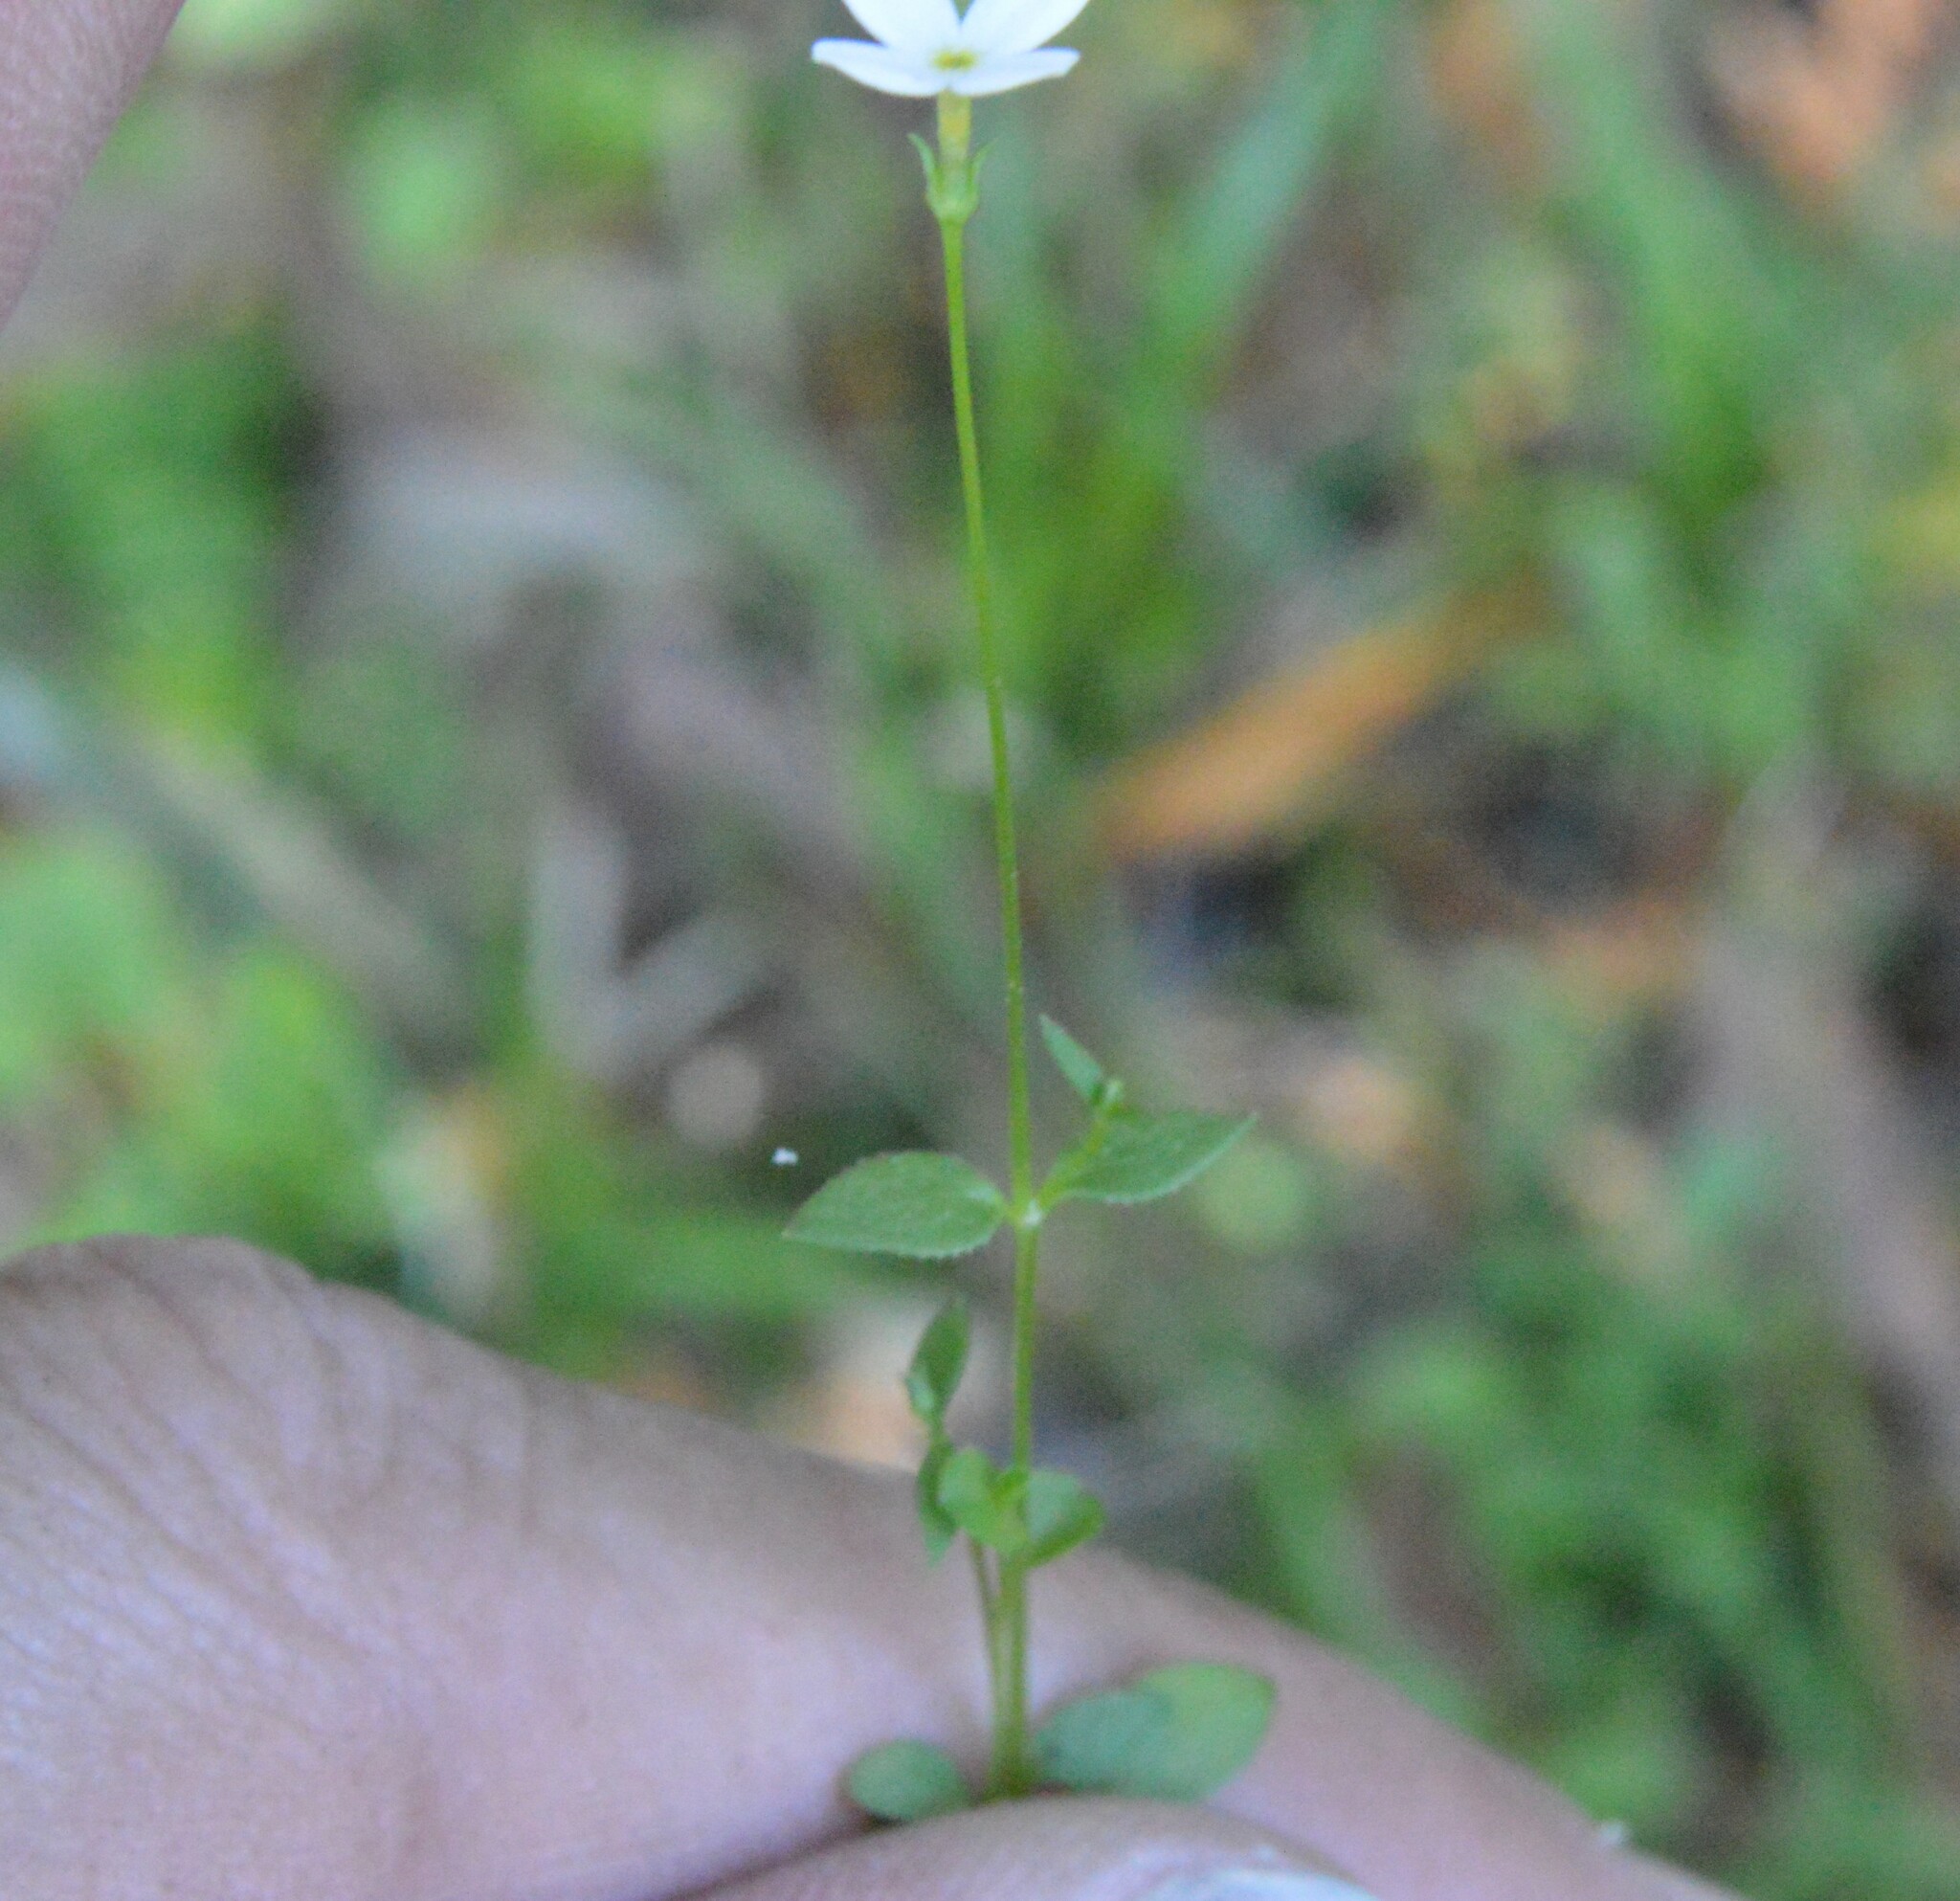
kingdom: Plantae
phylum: Tracheophyta
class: Magnoliopsida
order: Gentianales
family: Rubiaceae
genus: Houstonia
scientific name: Houstonia pusilla
